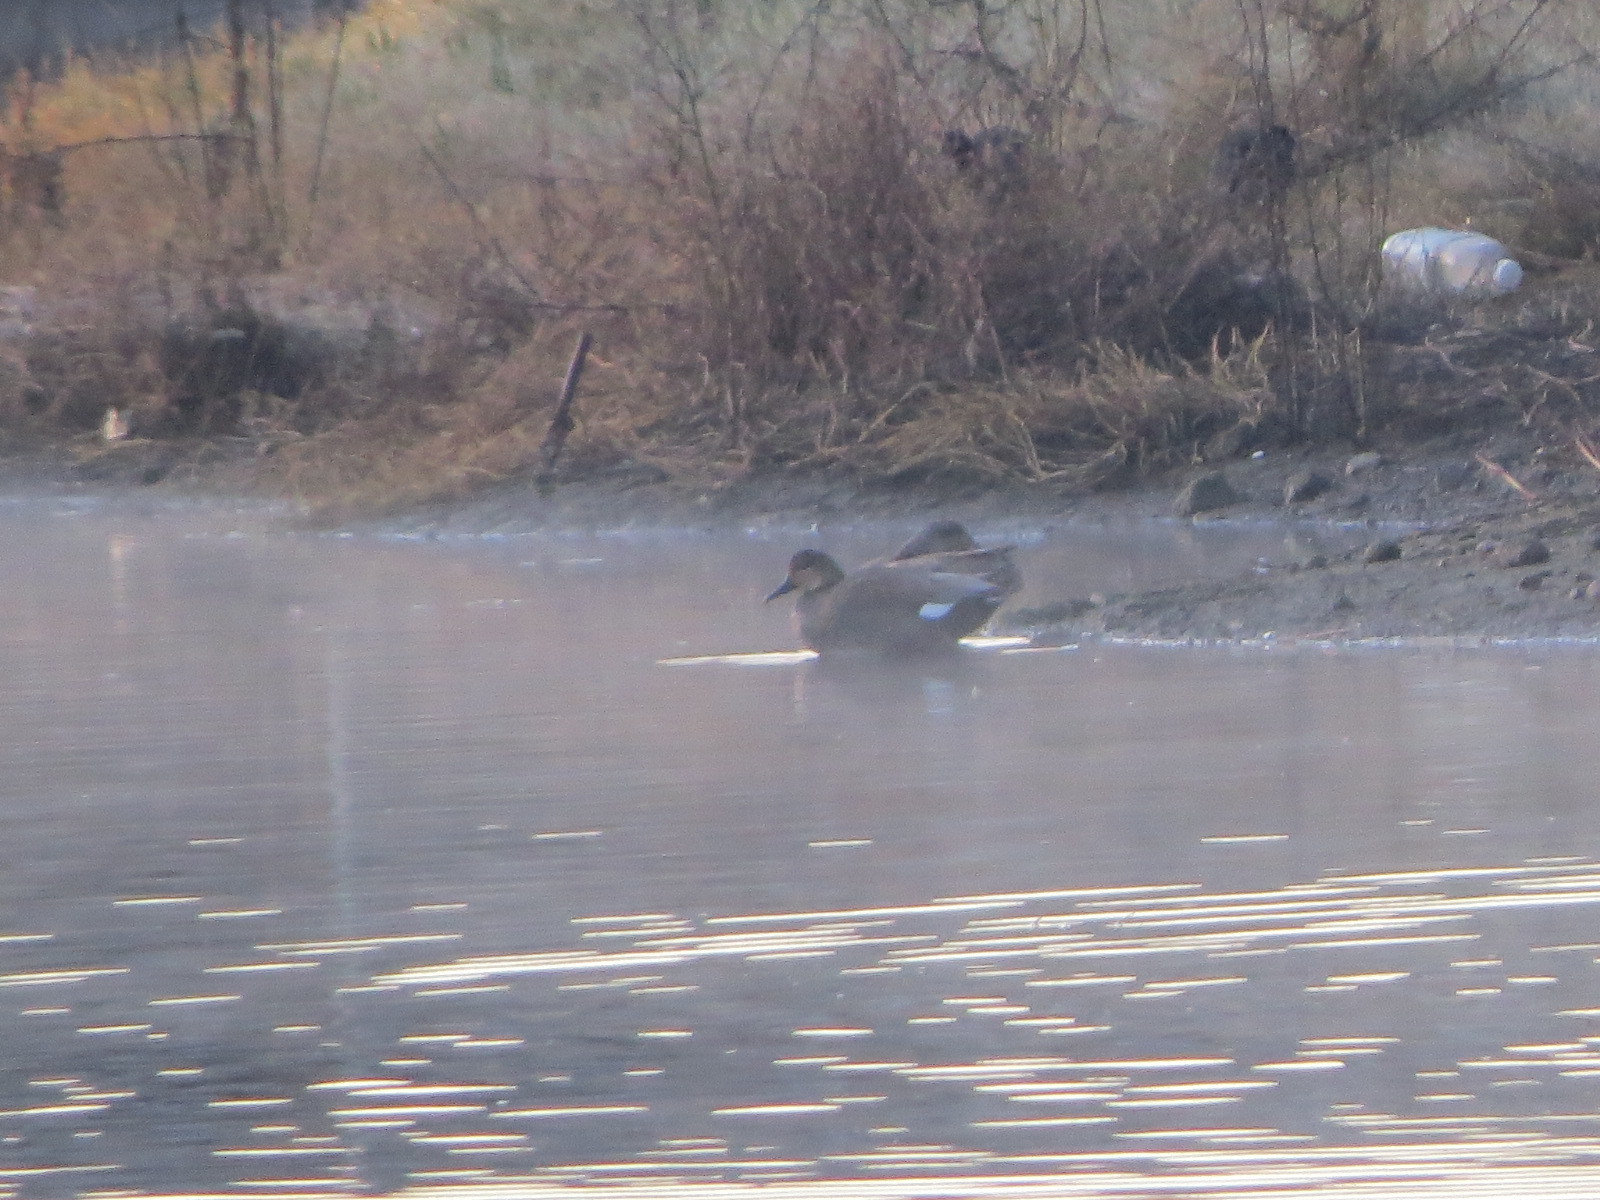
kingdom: Animalia
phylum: Chordata
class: Aves
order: Anseriformes
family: Anatidae
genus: Mareca
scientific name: Mareca strepera
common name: Gadwall
